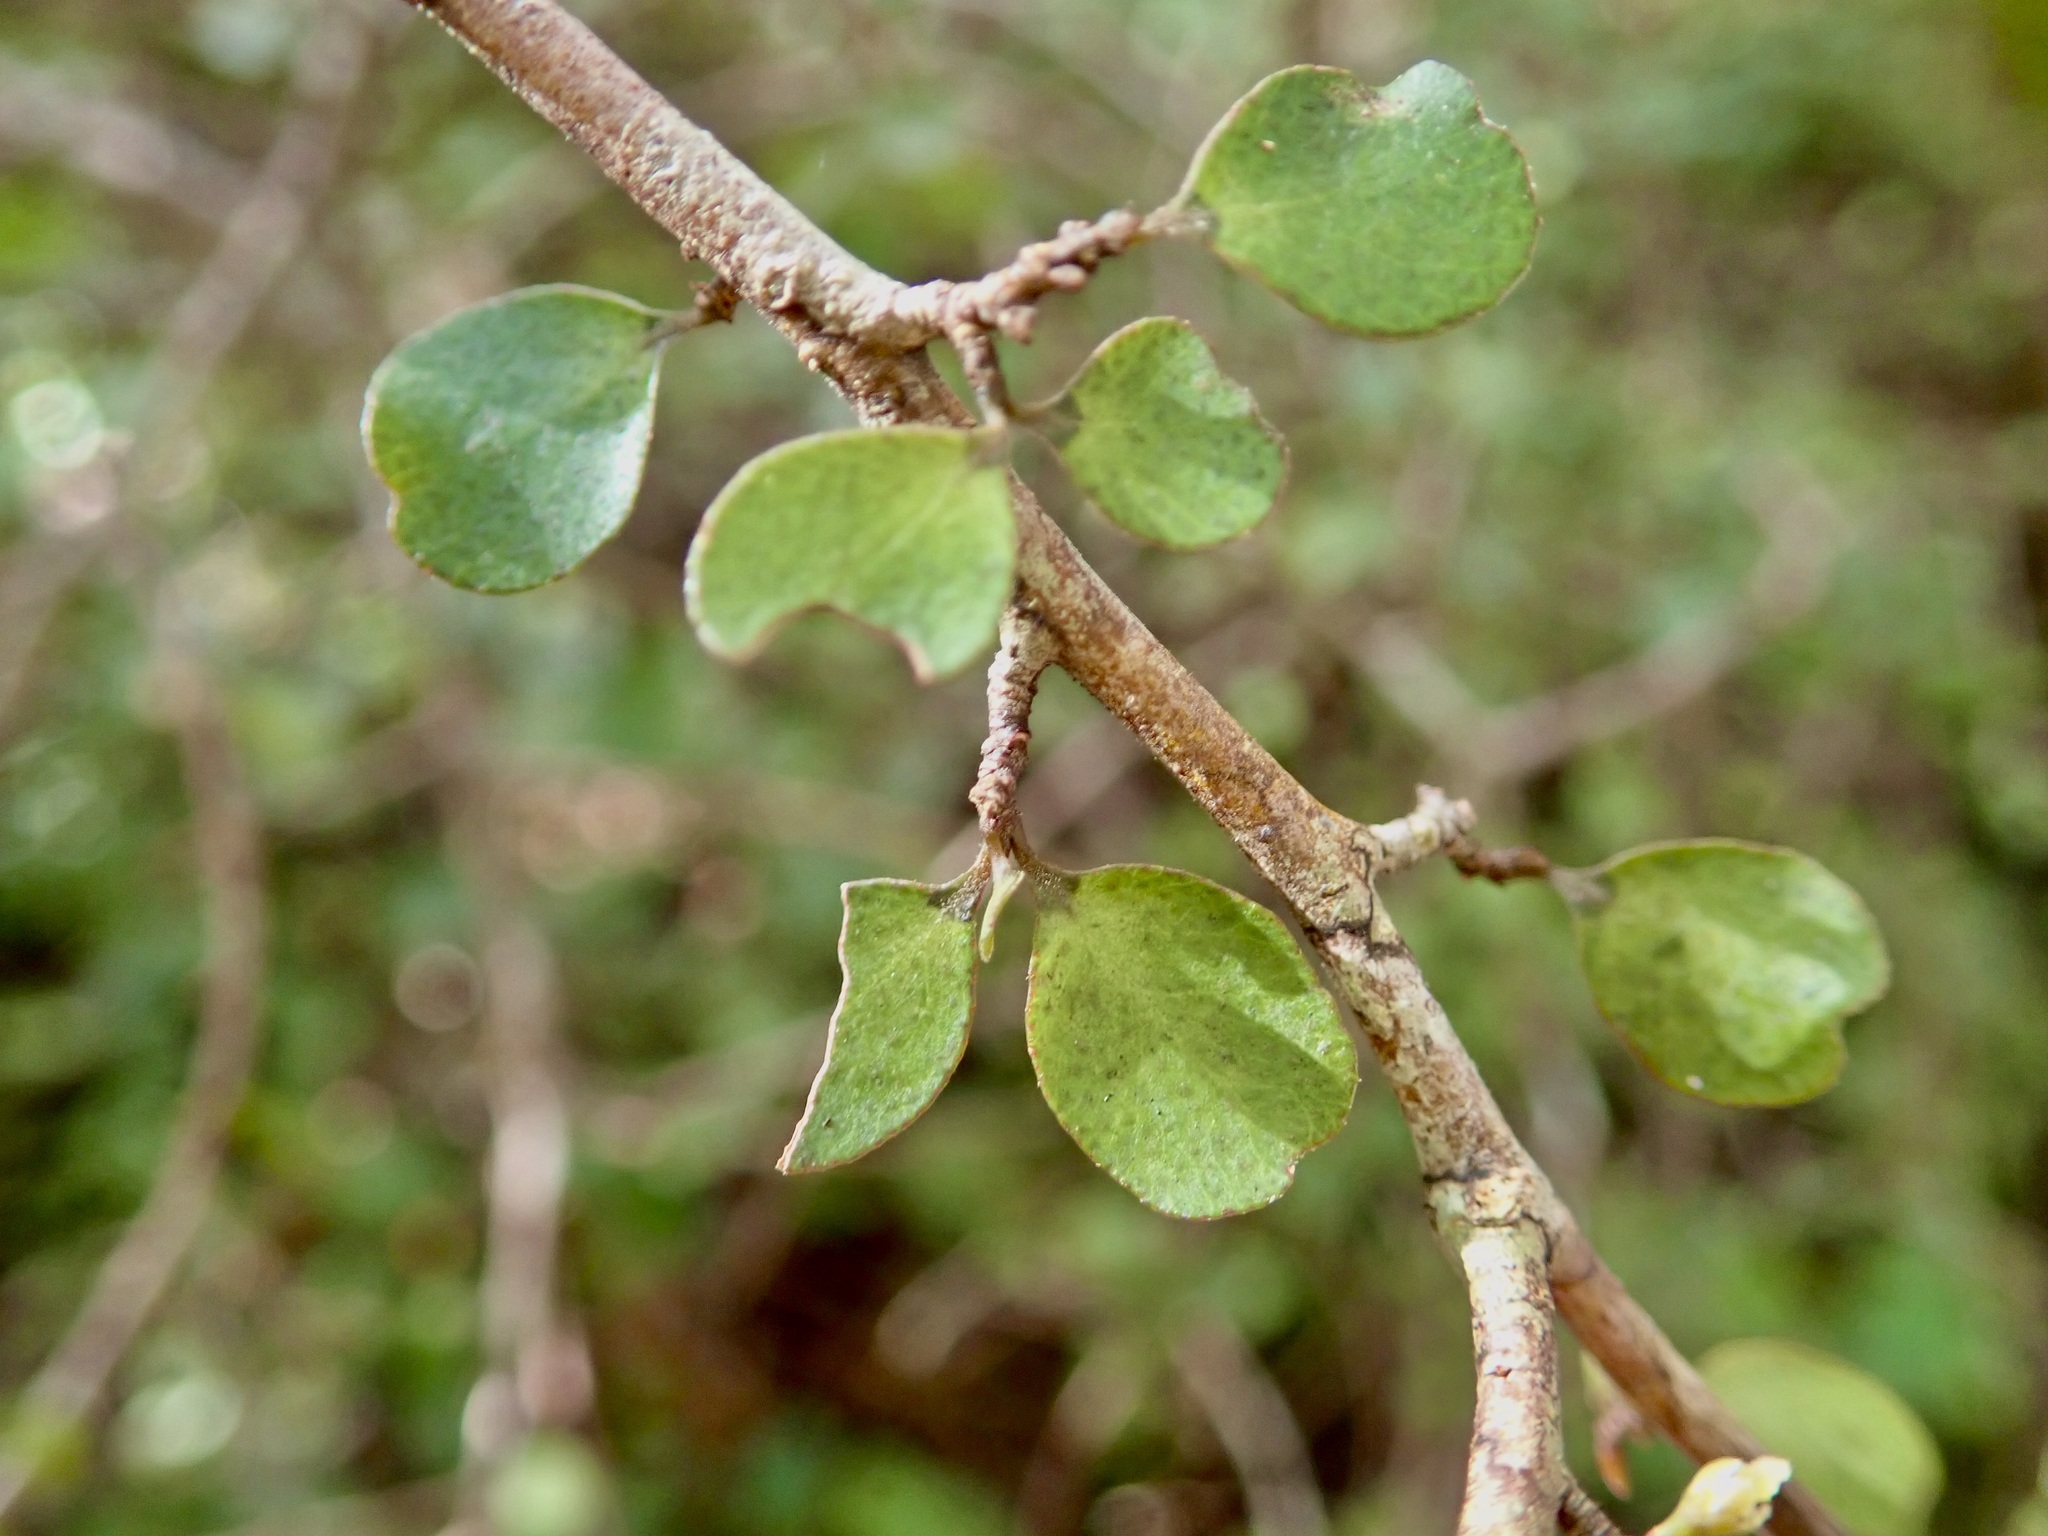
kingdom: Plantae
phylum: Tracheophyta
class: Magnoliopsida
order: Ericales
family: Primulaceae
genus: Myrsine
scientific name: Myrsine divaricata
